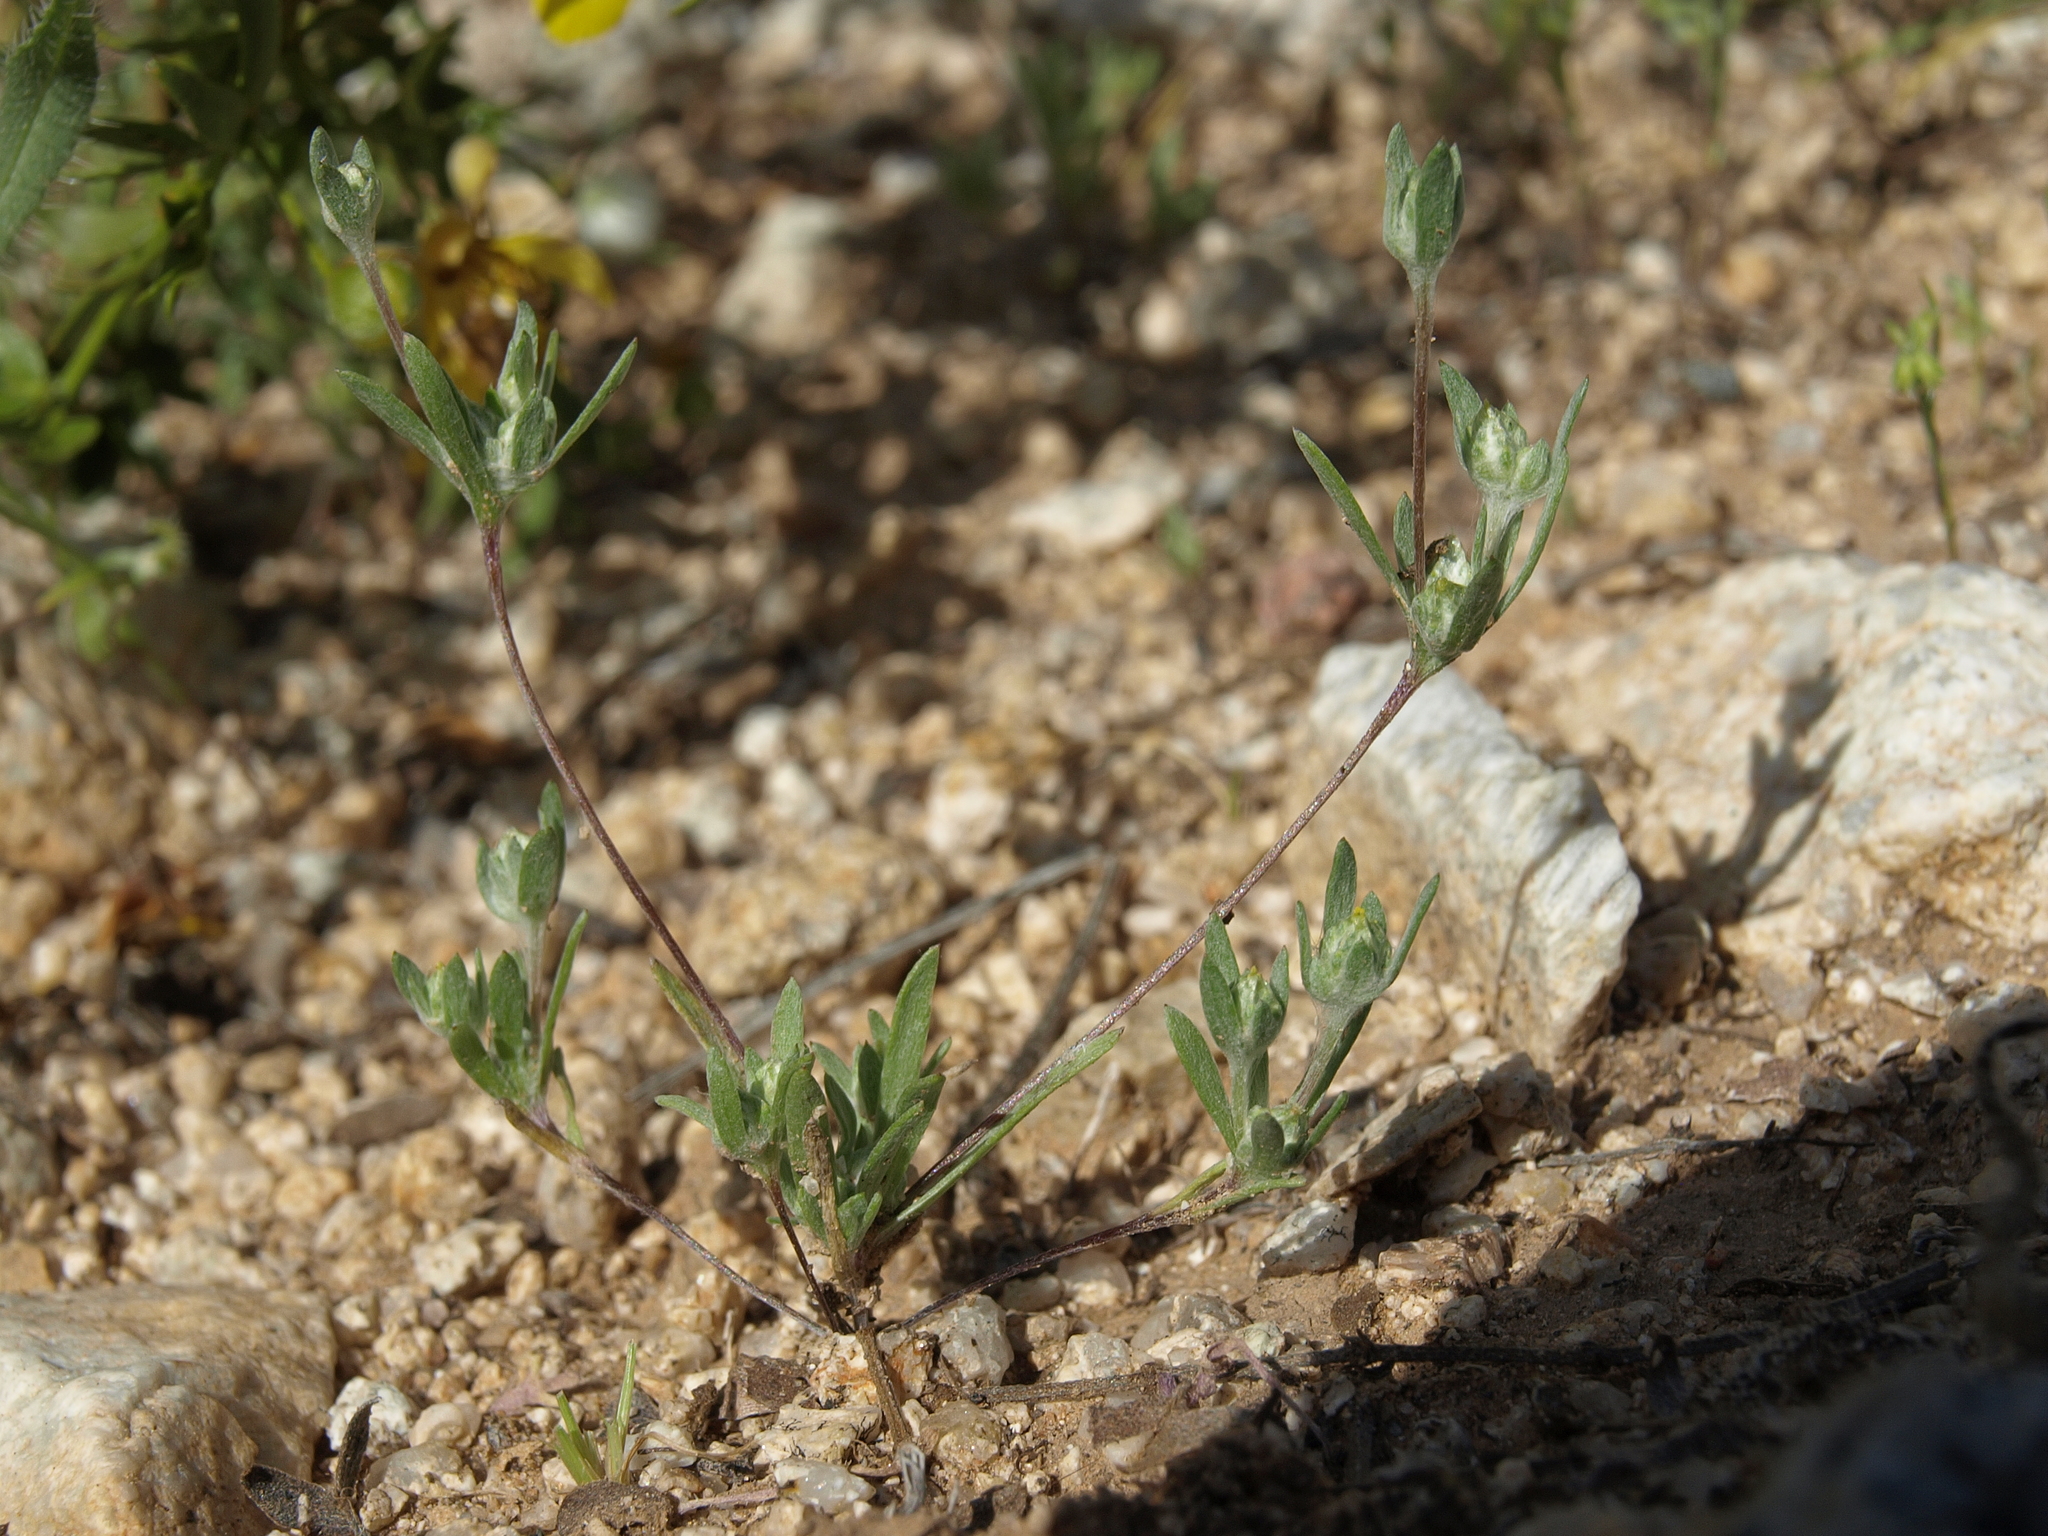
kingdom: Plantae
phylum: Tracheophyta
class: Magnoliopsida
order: Asterales
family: Asteraceae
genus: Logfia
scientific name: Logfia arizonica
